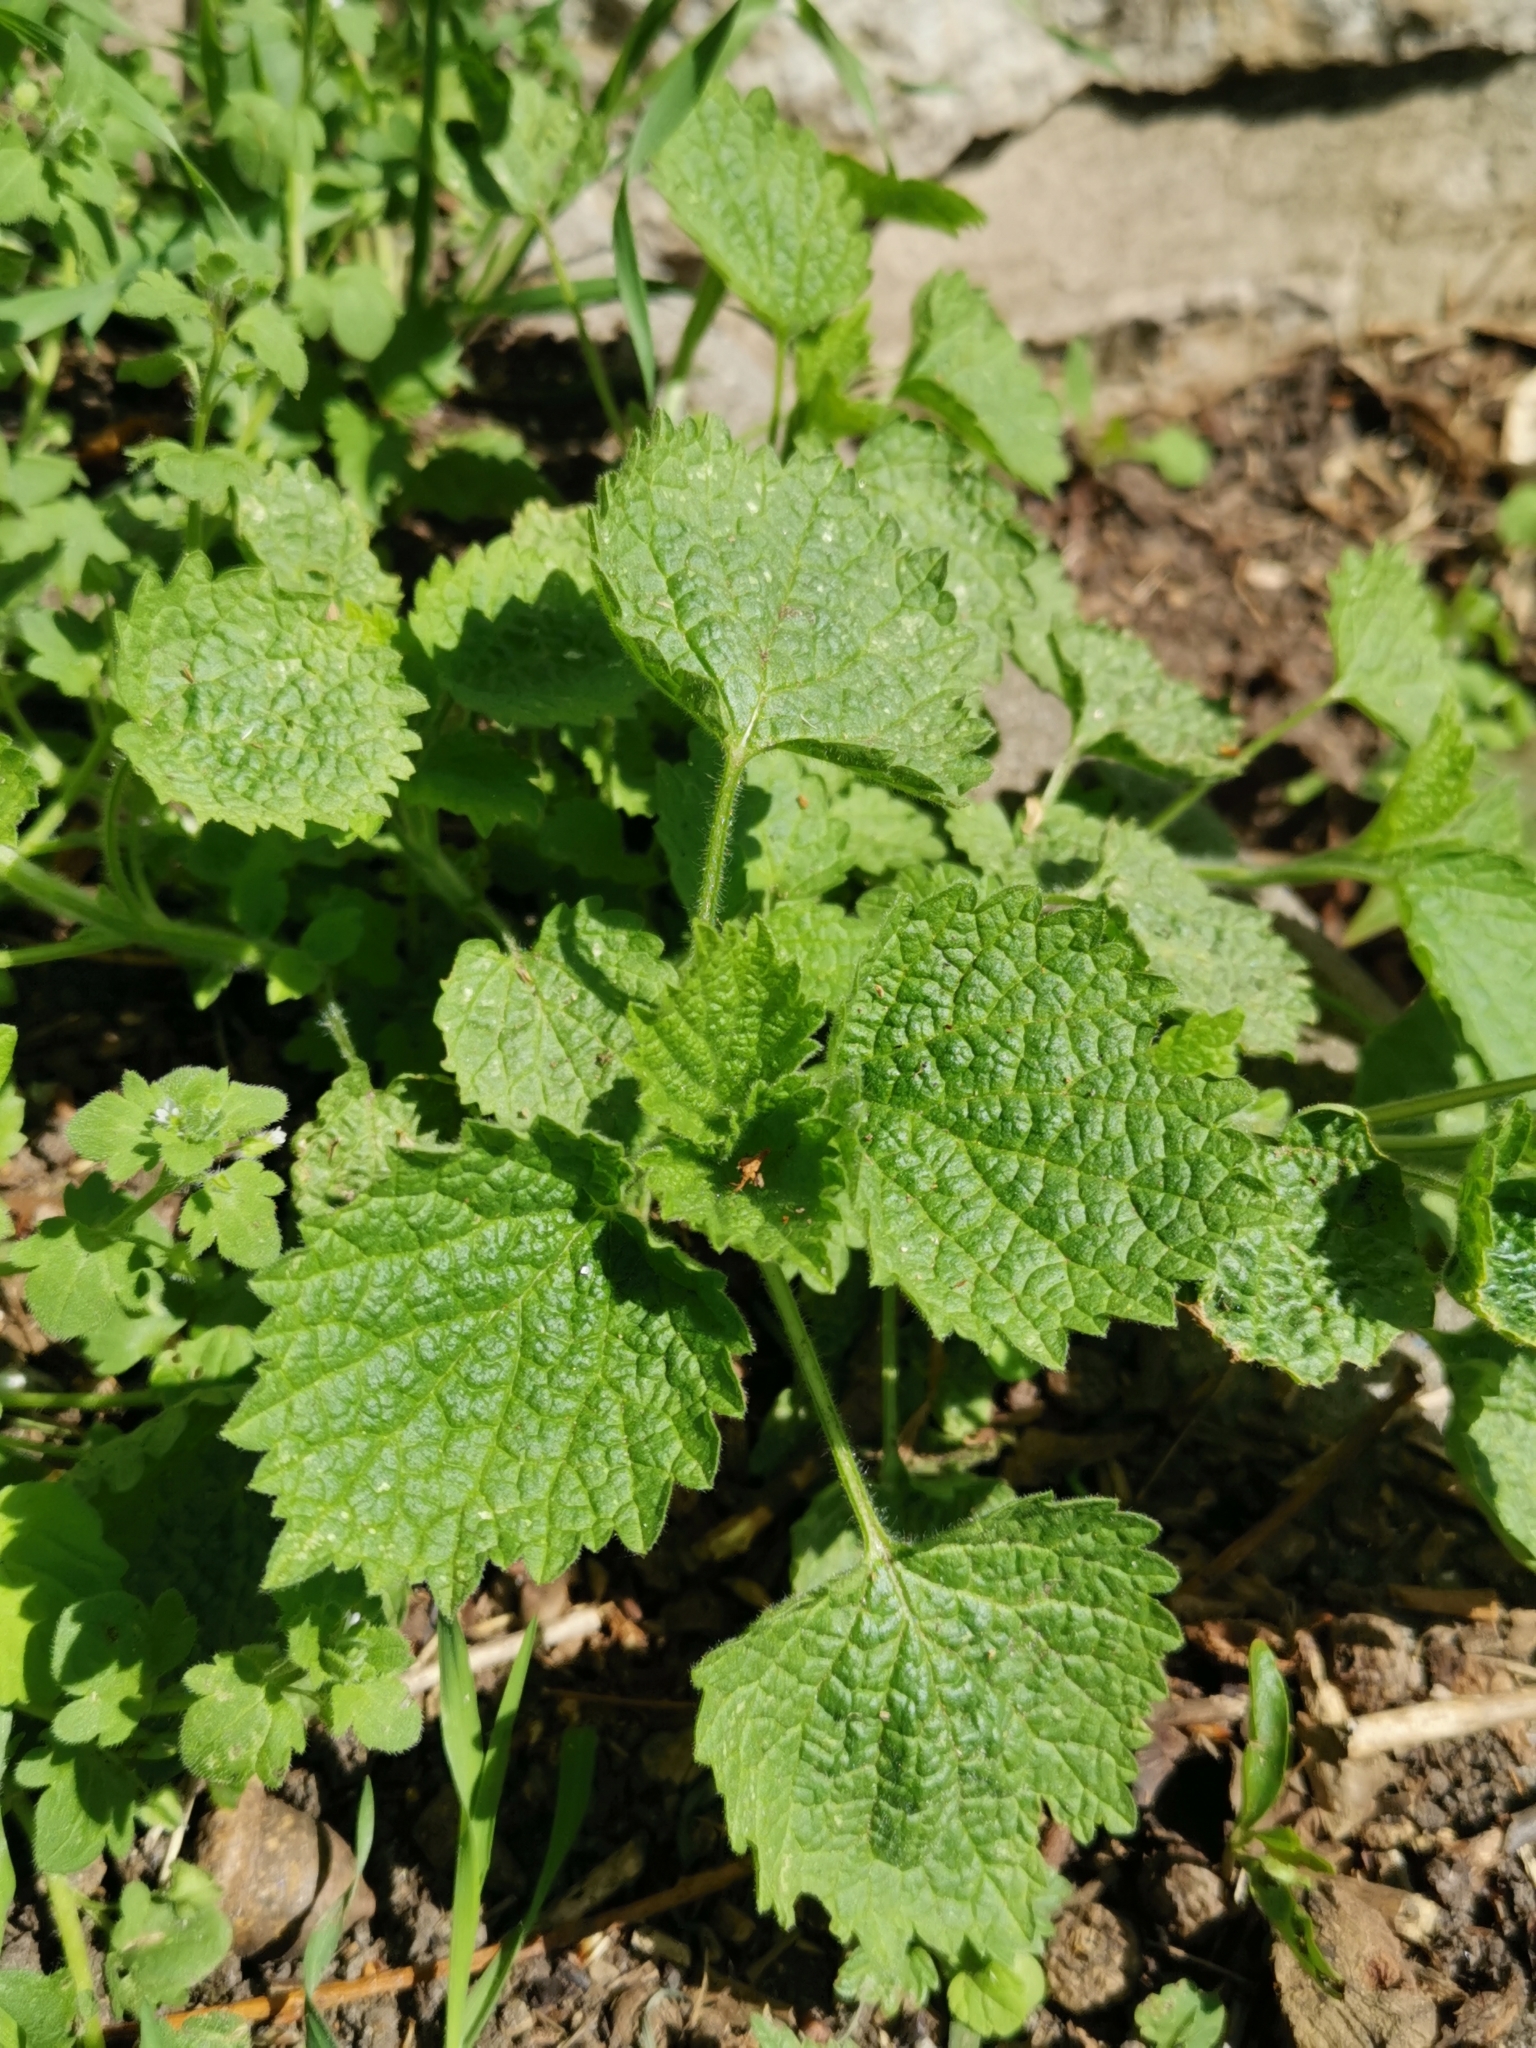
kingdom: Plantae
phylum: Tracheophyta
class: Magnoliopsida
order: Lamiales
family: Lamiaceae
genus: Ballota
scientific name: Ballota nigra
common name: Black horehound
